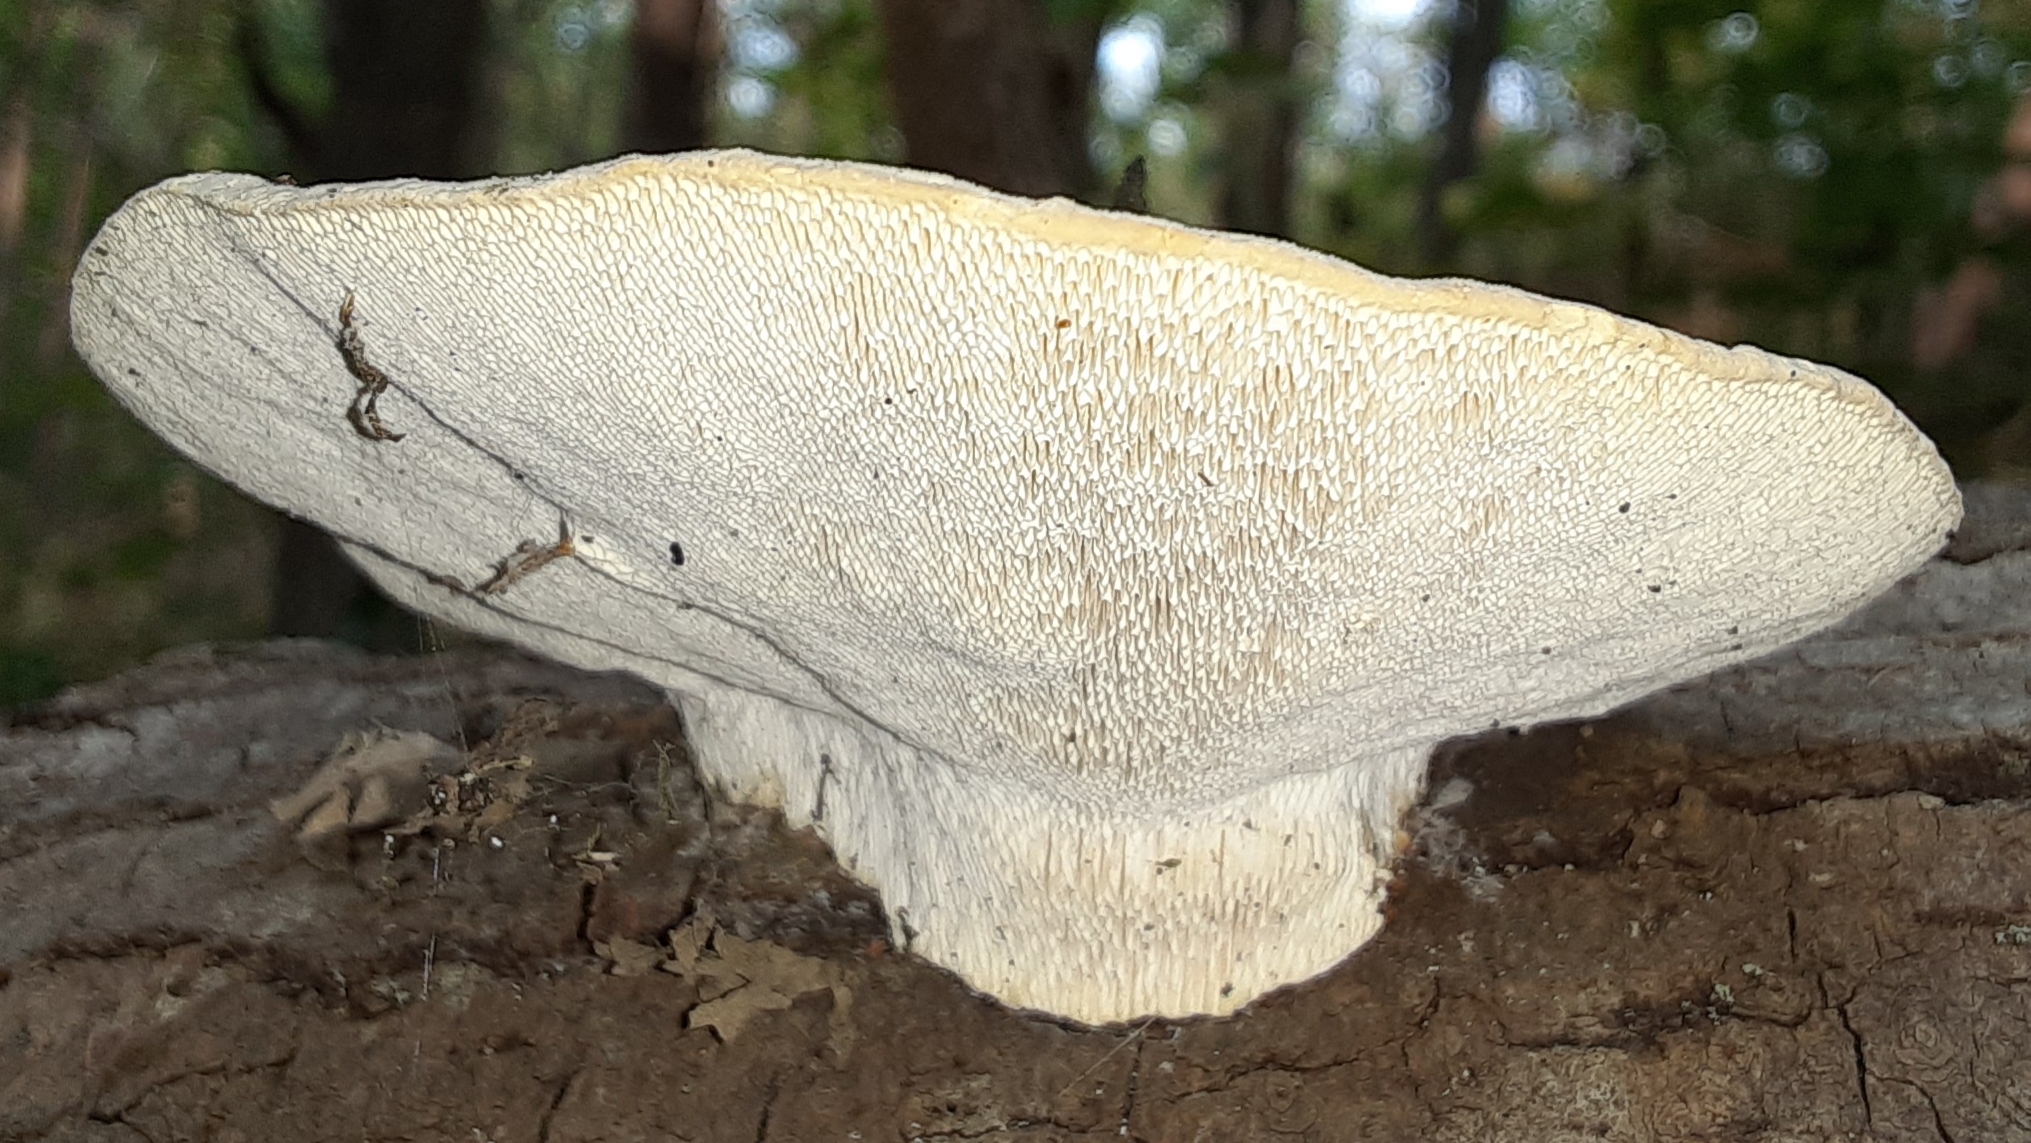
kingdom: Fungi
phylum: Basidiomycota
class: Agaricomycetes
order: Polyporales
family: Polyporaceae
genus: Trametes
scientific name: Trametes gibbosa
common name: Lumpy bracket
